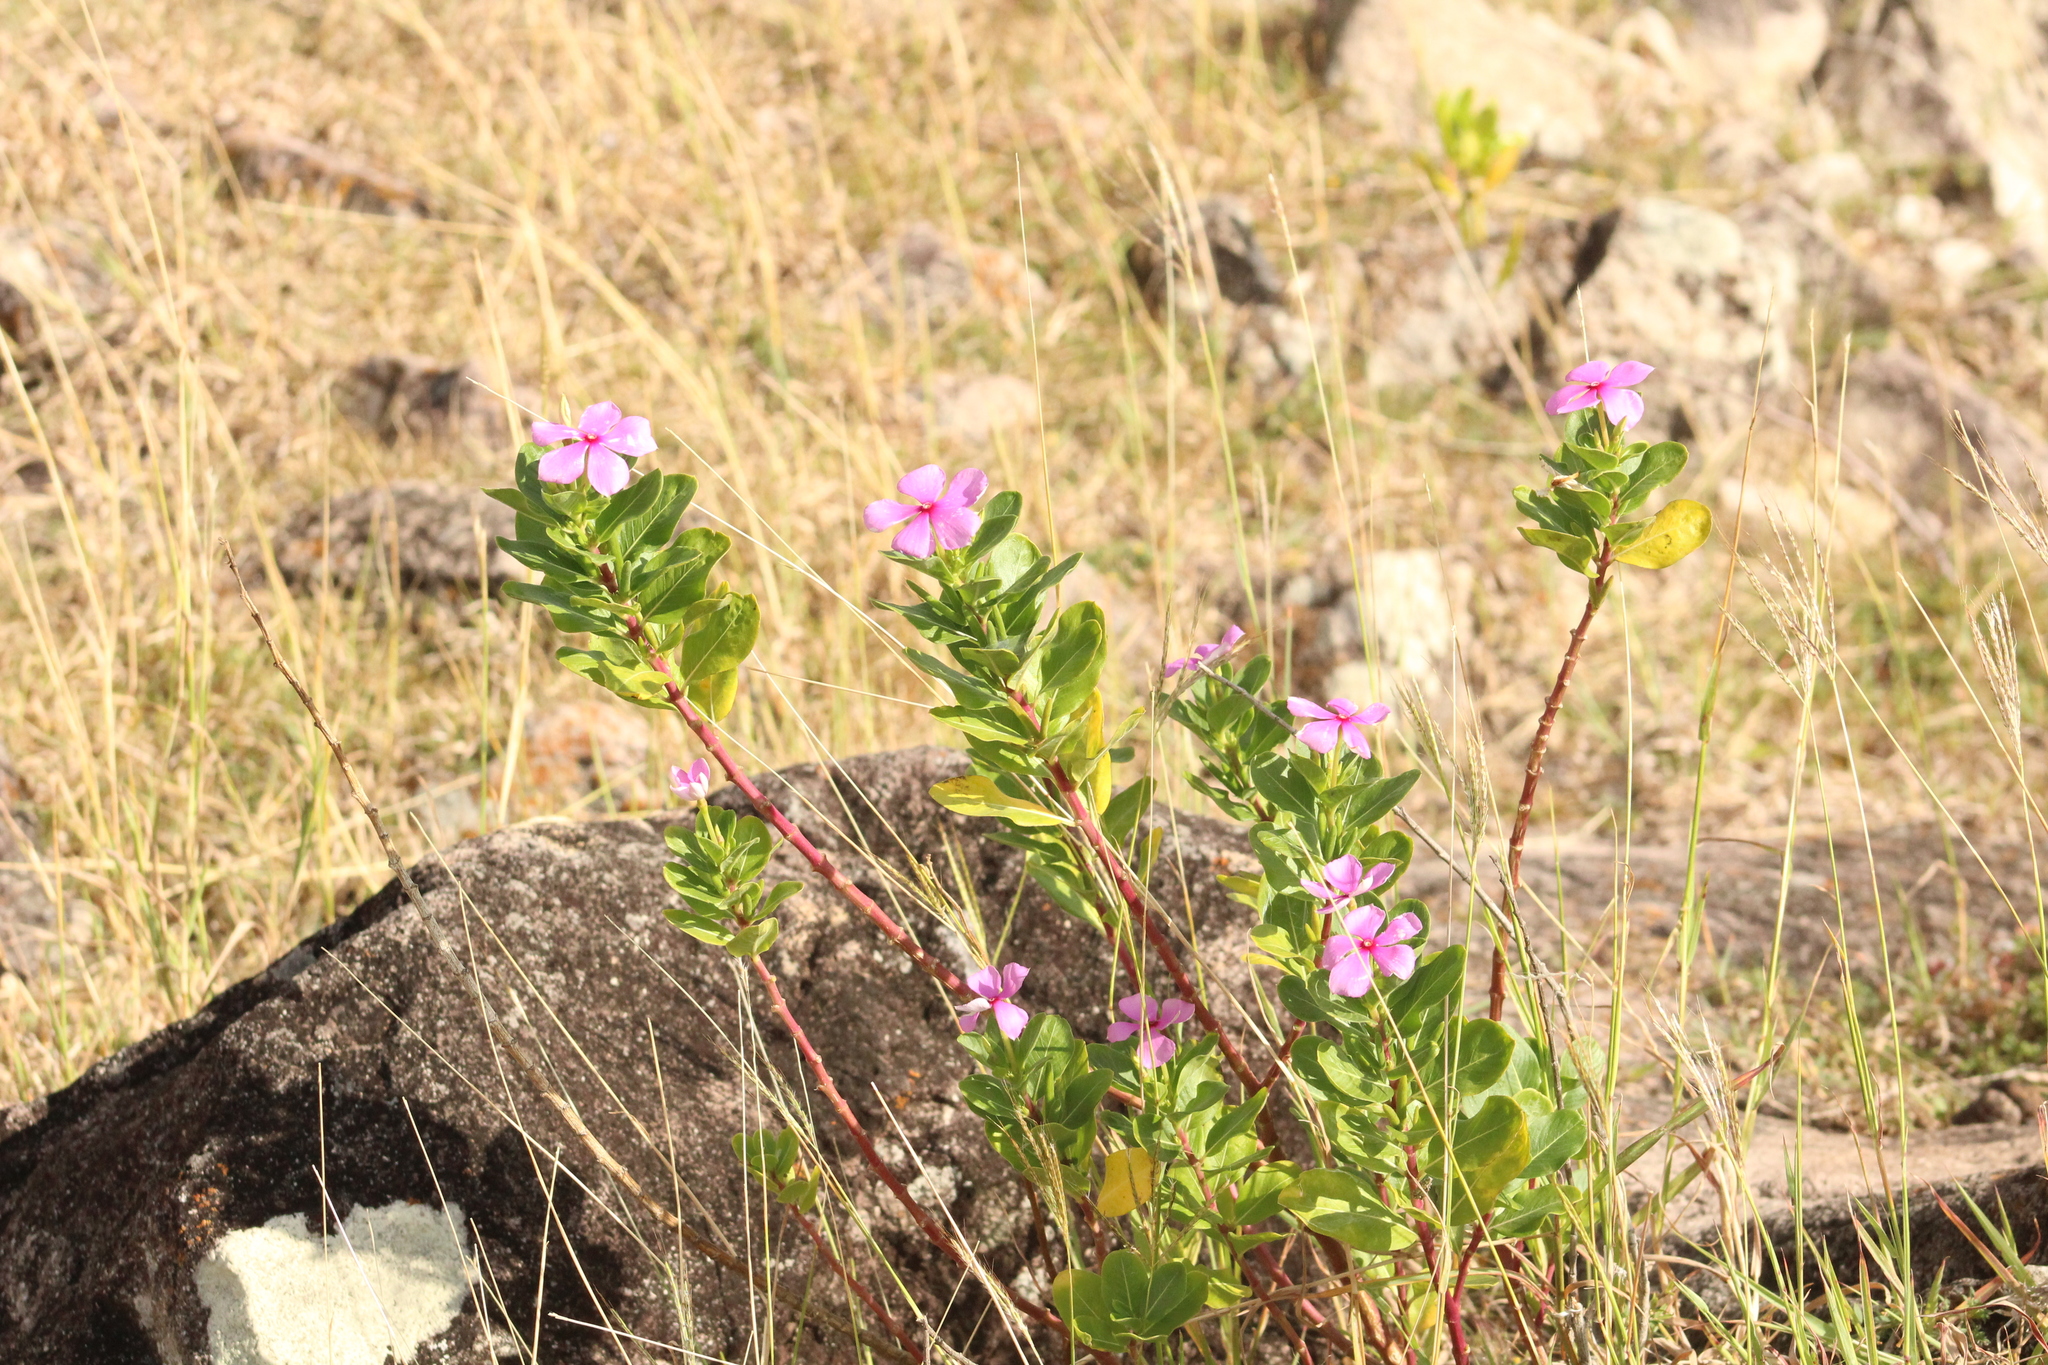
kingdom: Plantae
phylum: Tracheophyta
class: Magnoliopsida
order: Gentianales
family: Apocynaceae
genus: Catharanthus
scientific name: Catharanthus roseus
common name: Madagascar periwinkle
